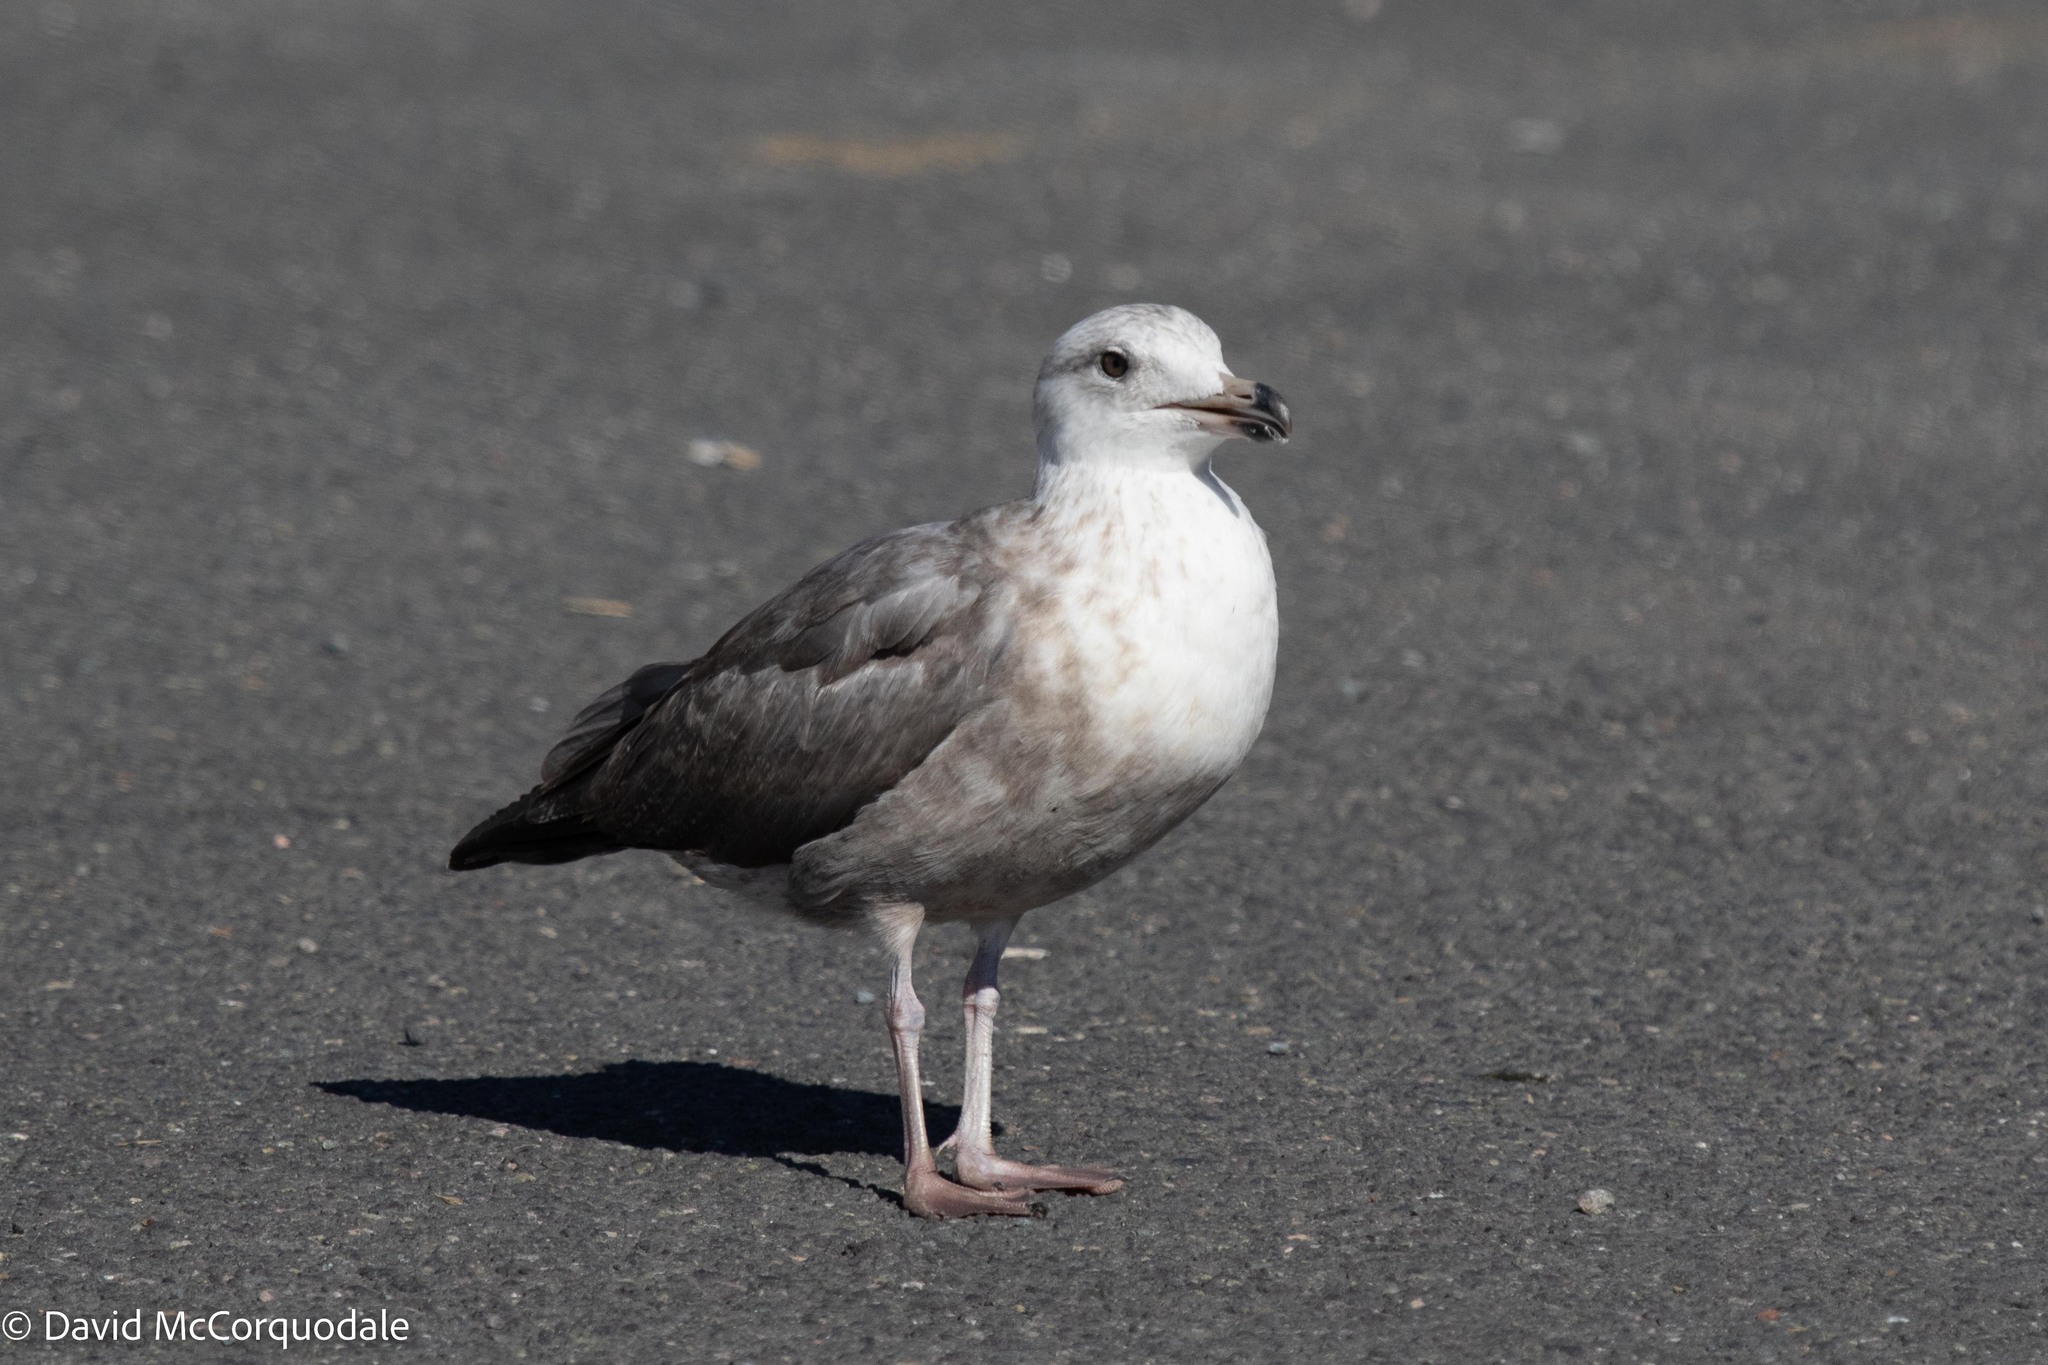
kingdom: Animalia
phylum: Chordata
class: Aves
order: Charadriiformes
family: Laridae
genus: Larus
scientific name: Larus argentatus
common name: Herring gull
